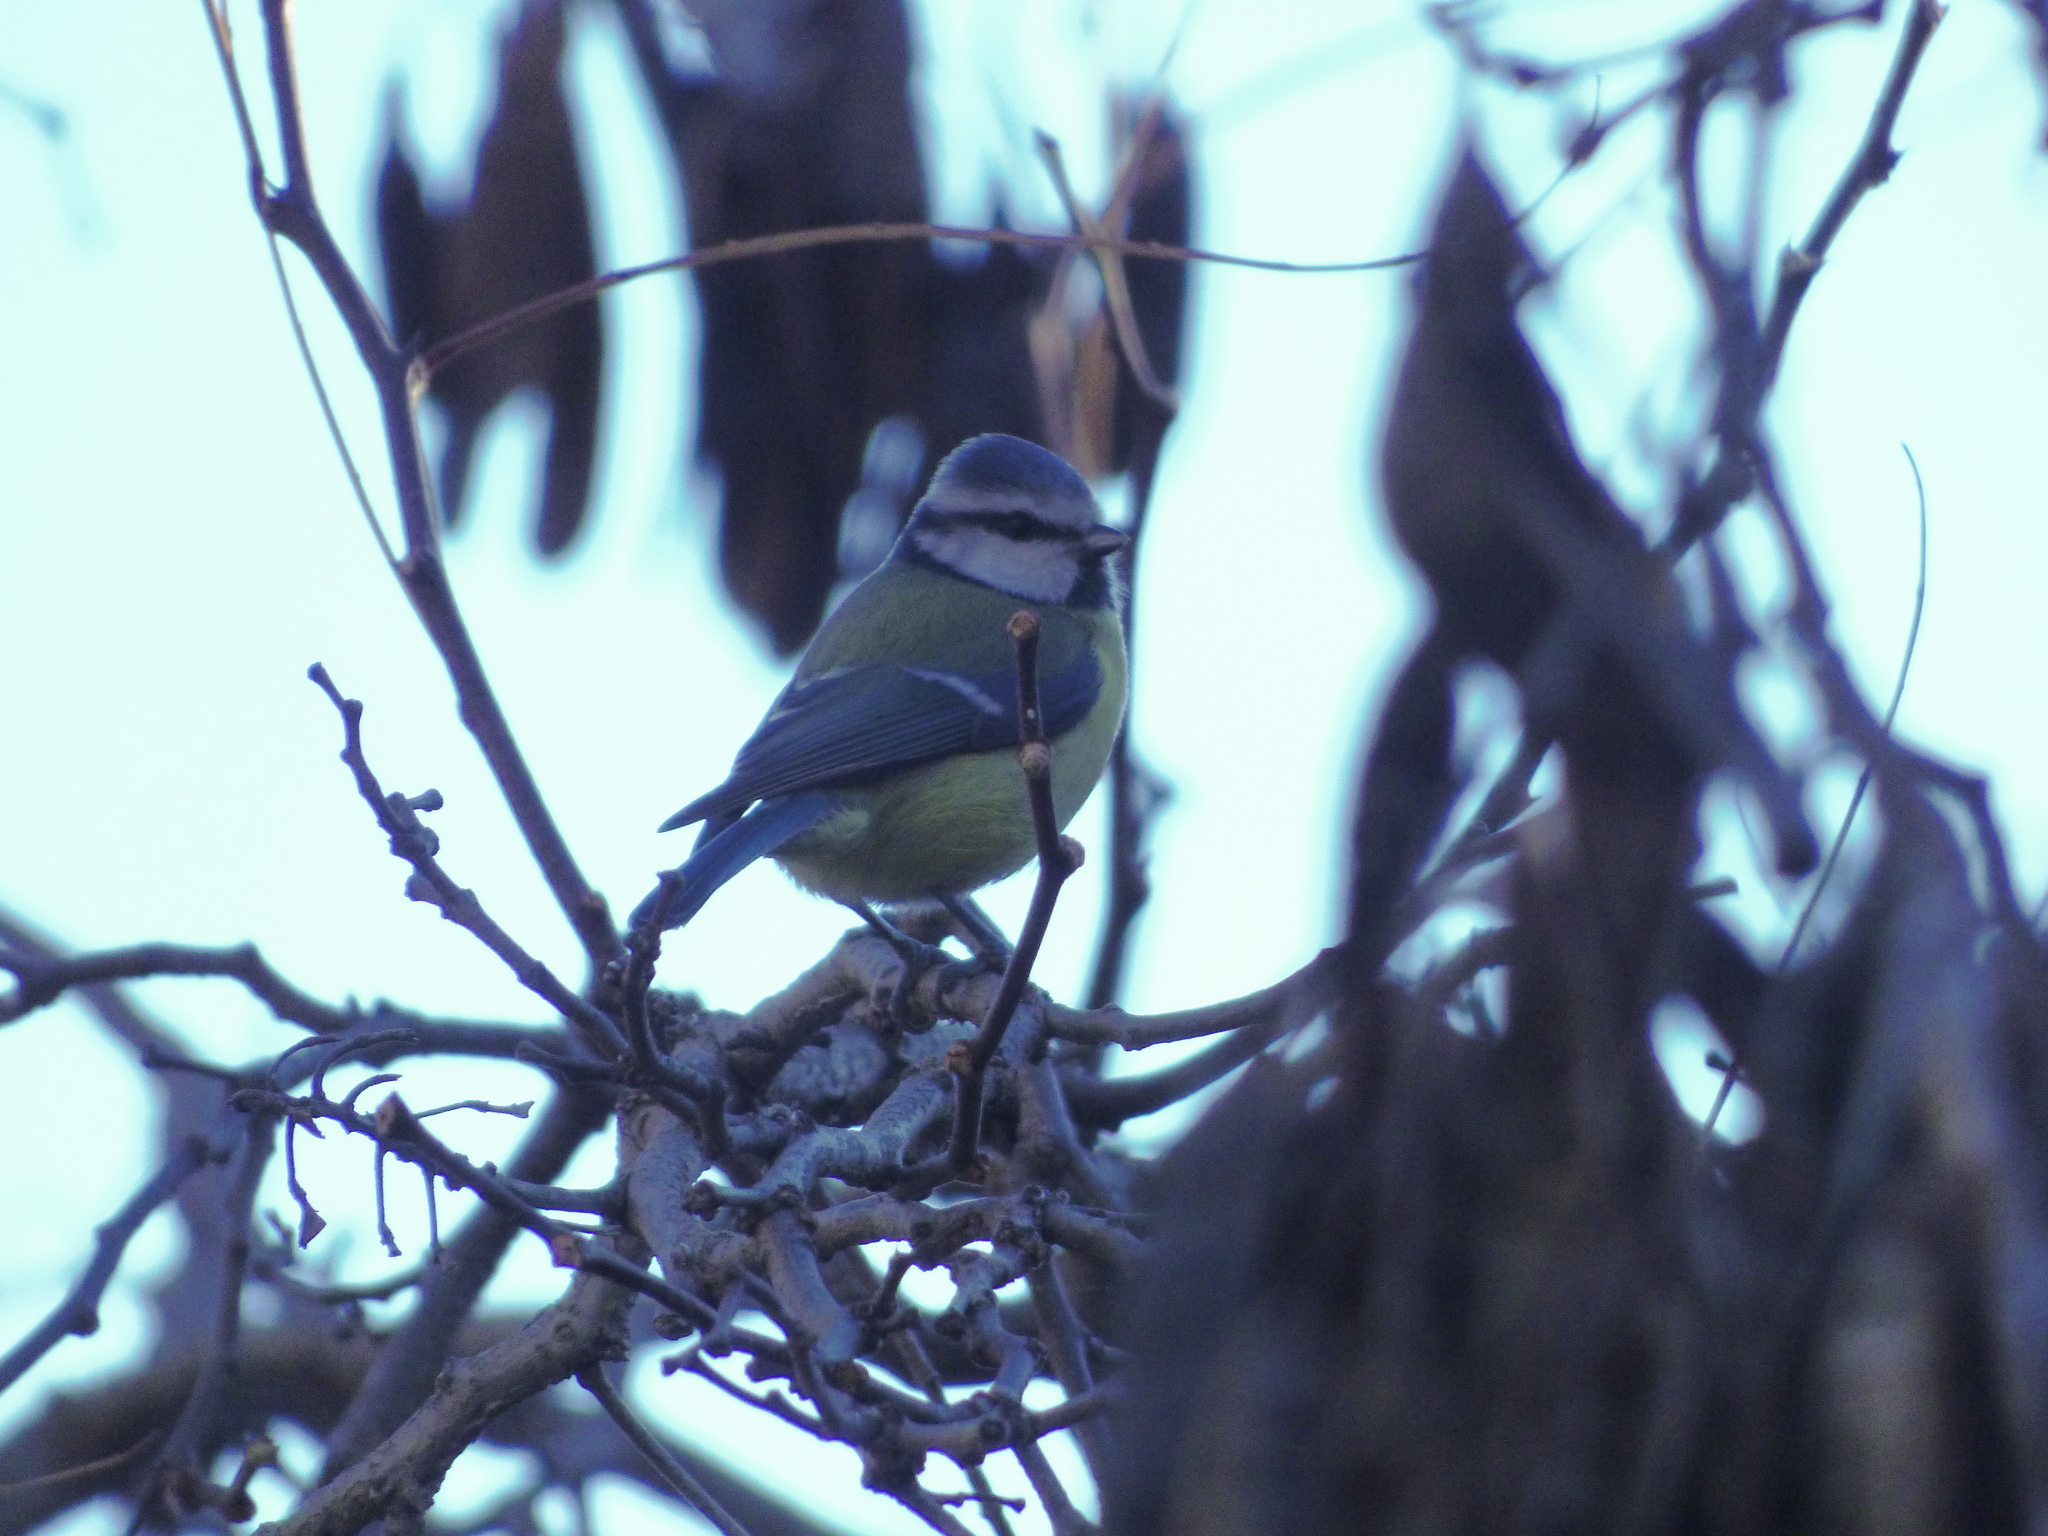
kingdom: Animalia
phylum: Chordata
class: Aves
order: Passeriformes
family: Paridae
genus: Cyanistes
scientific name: Cyanistes caeruleus
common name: Eurasian blue tit
